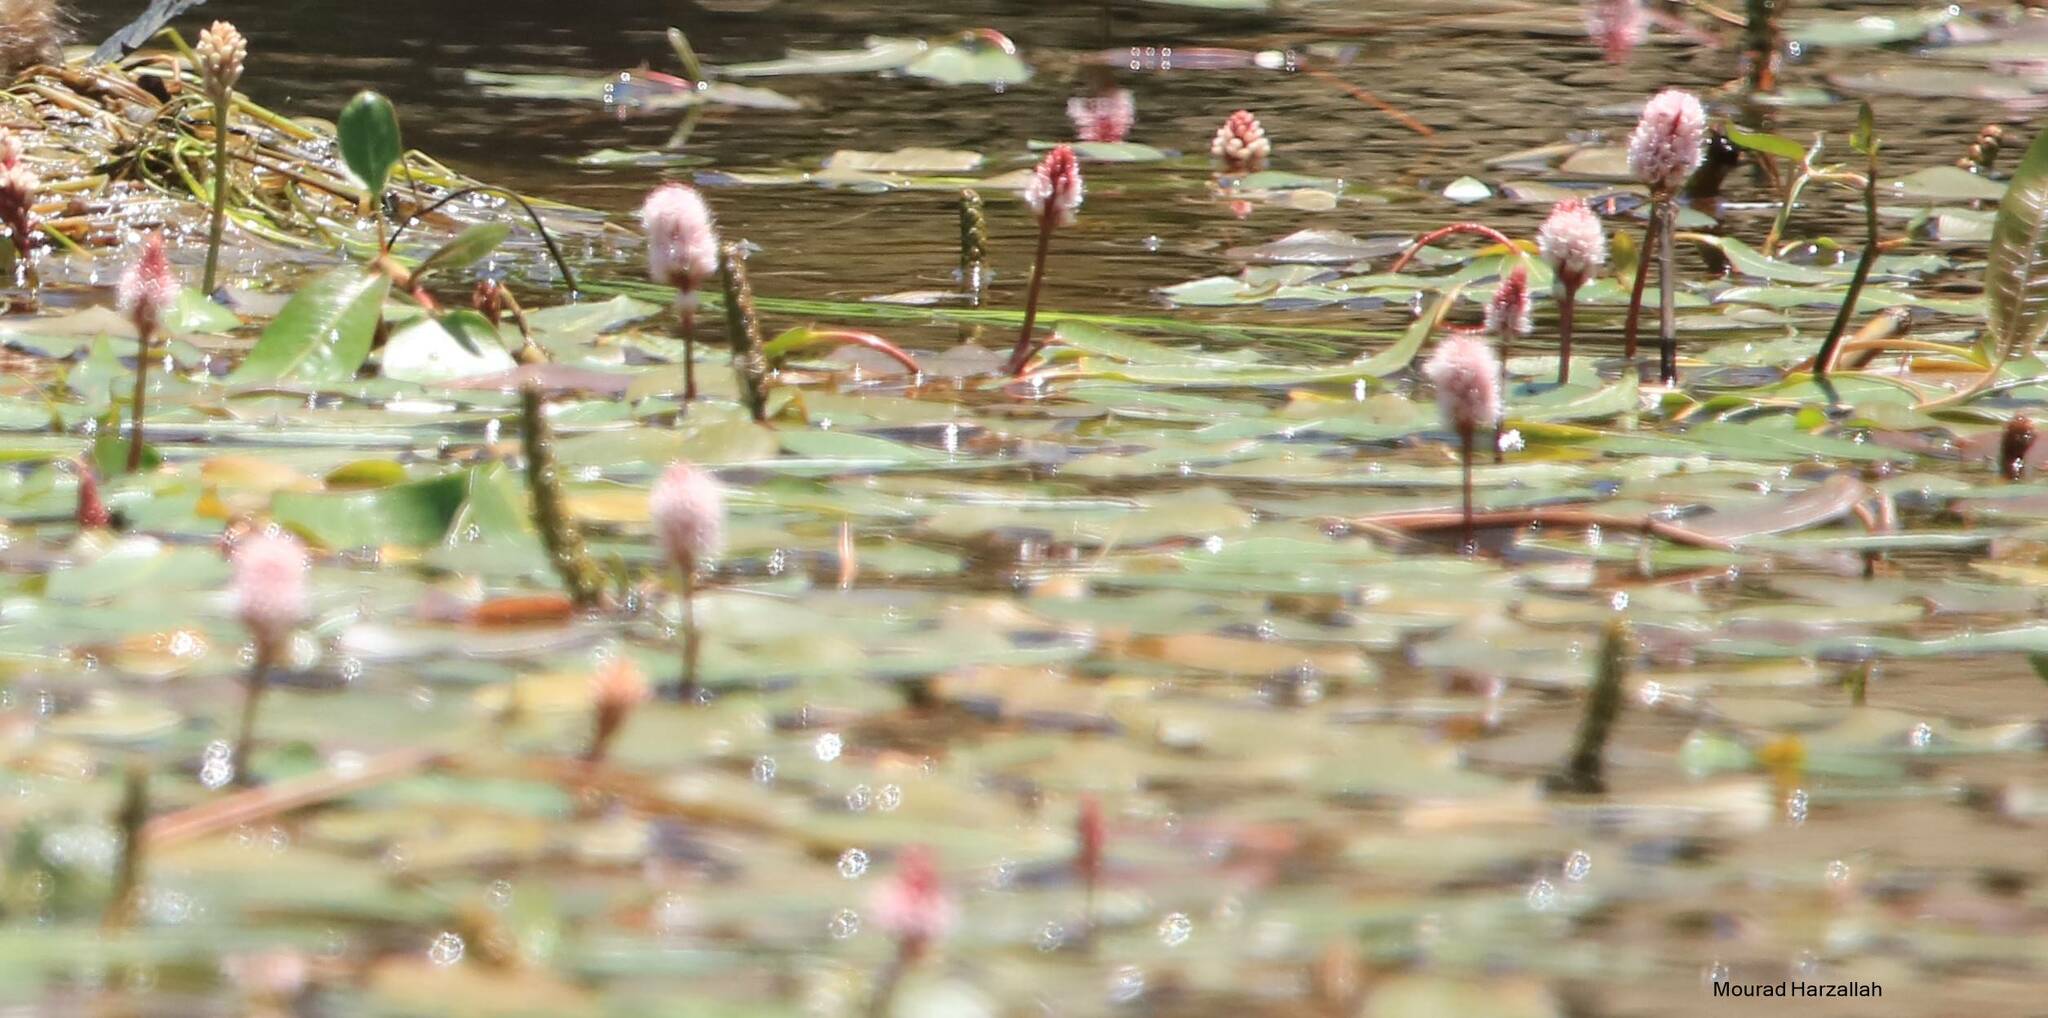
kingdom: Plantae
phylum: Tracheophyta
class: Magnoliopsida
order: Caryophyllales
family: Polygonaceae
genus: Persicaria
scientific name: Persicaria amphibia
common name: Amphibious bistort
